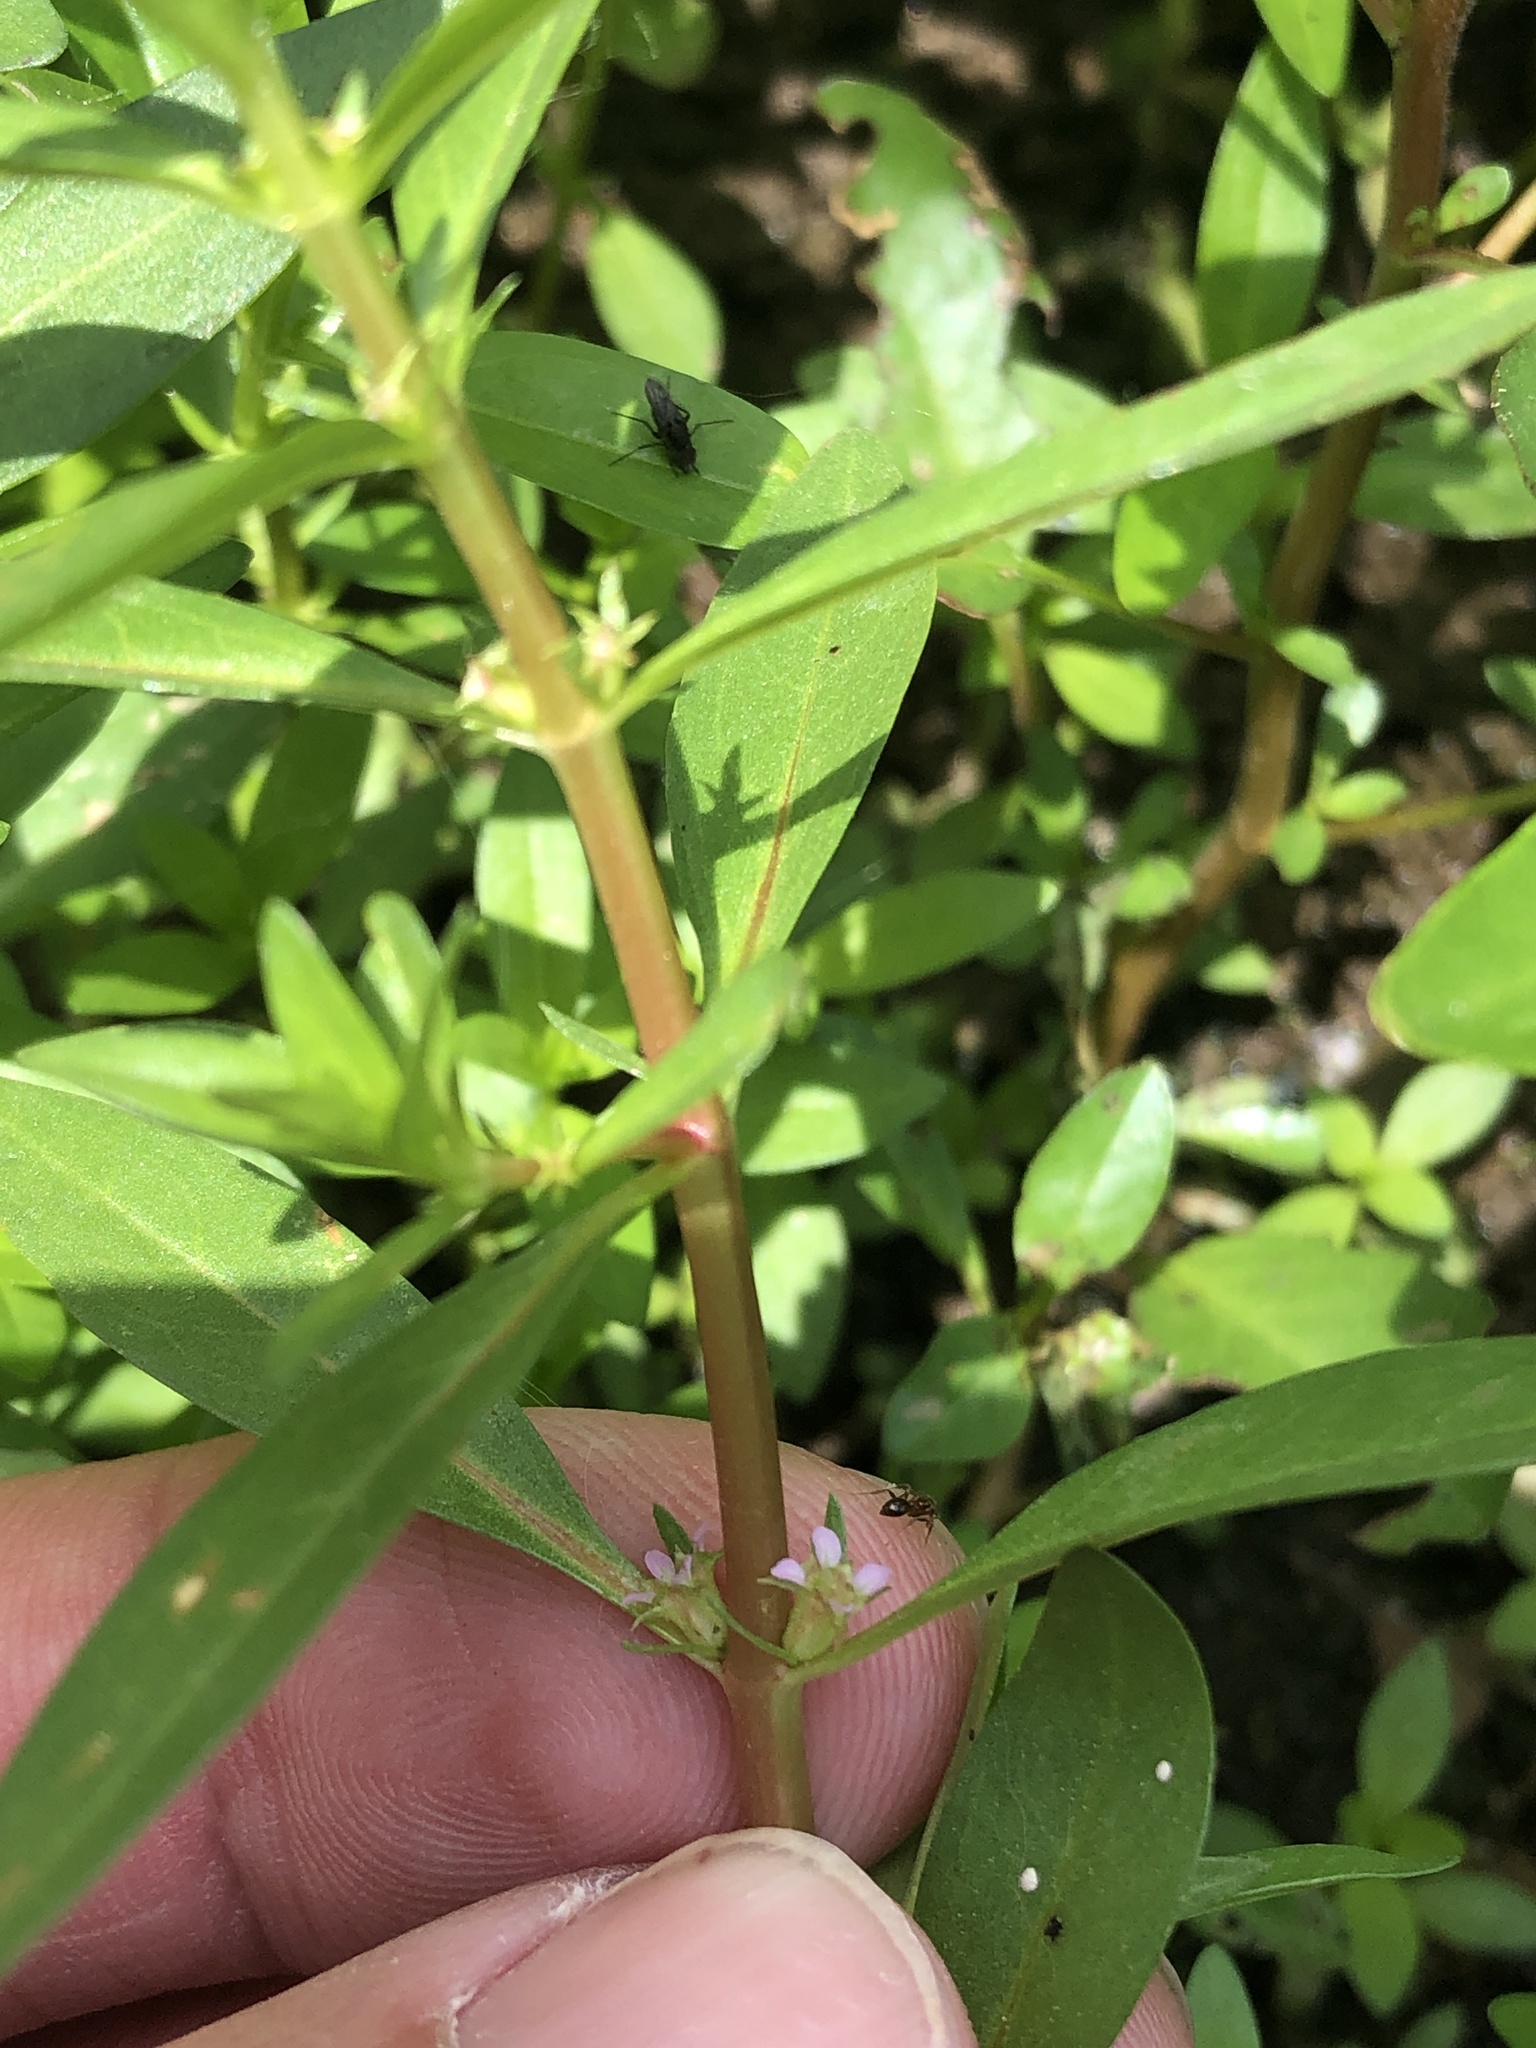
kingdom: Plantae
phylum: Tracheophyta
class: Magnoliopsida
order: Myrtales
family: Lythraceae
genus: Rotala
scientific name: Rotala ramosior
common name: Lowland rotala
